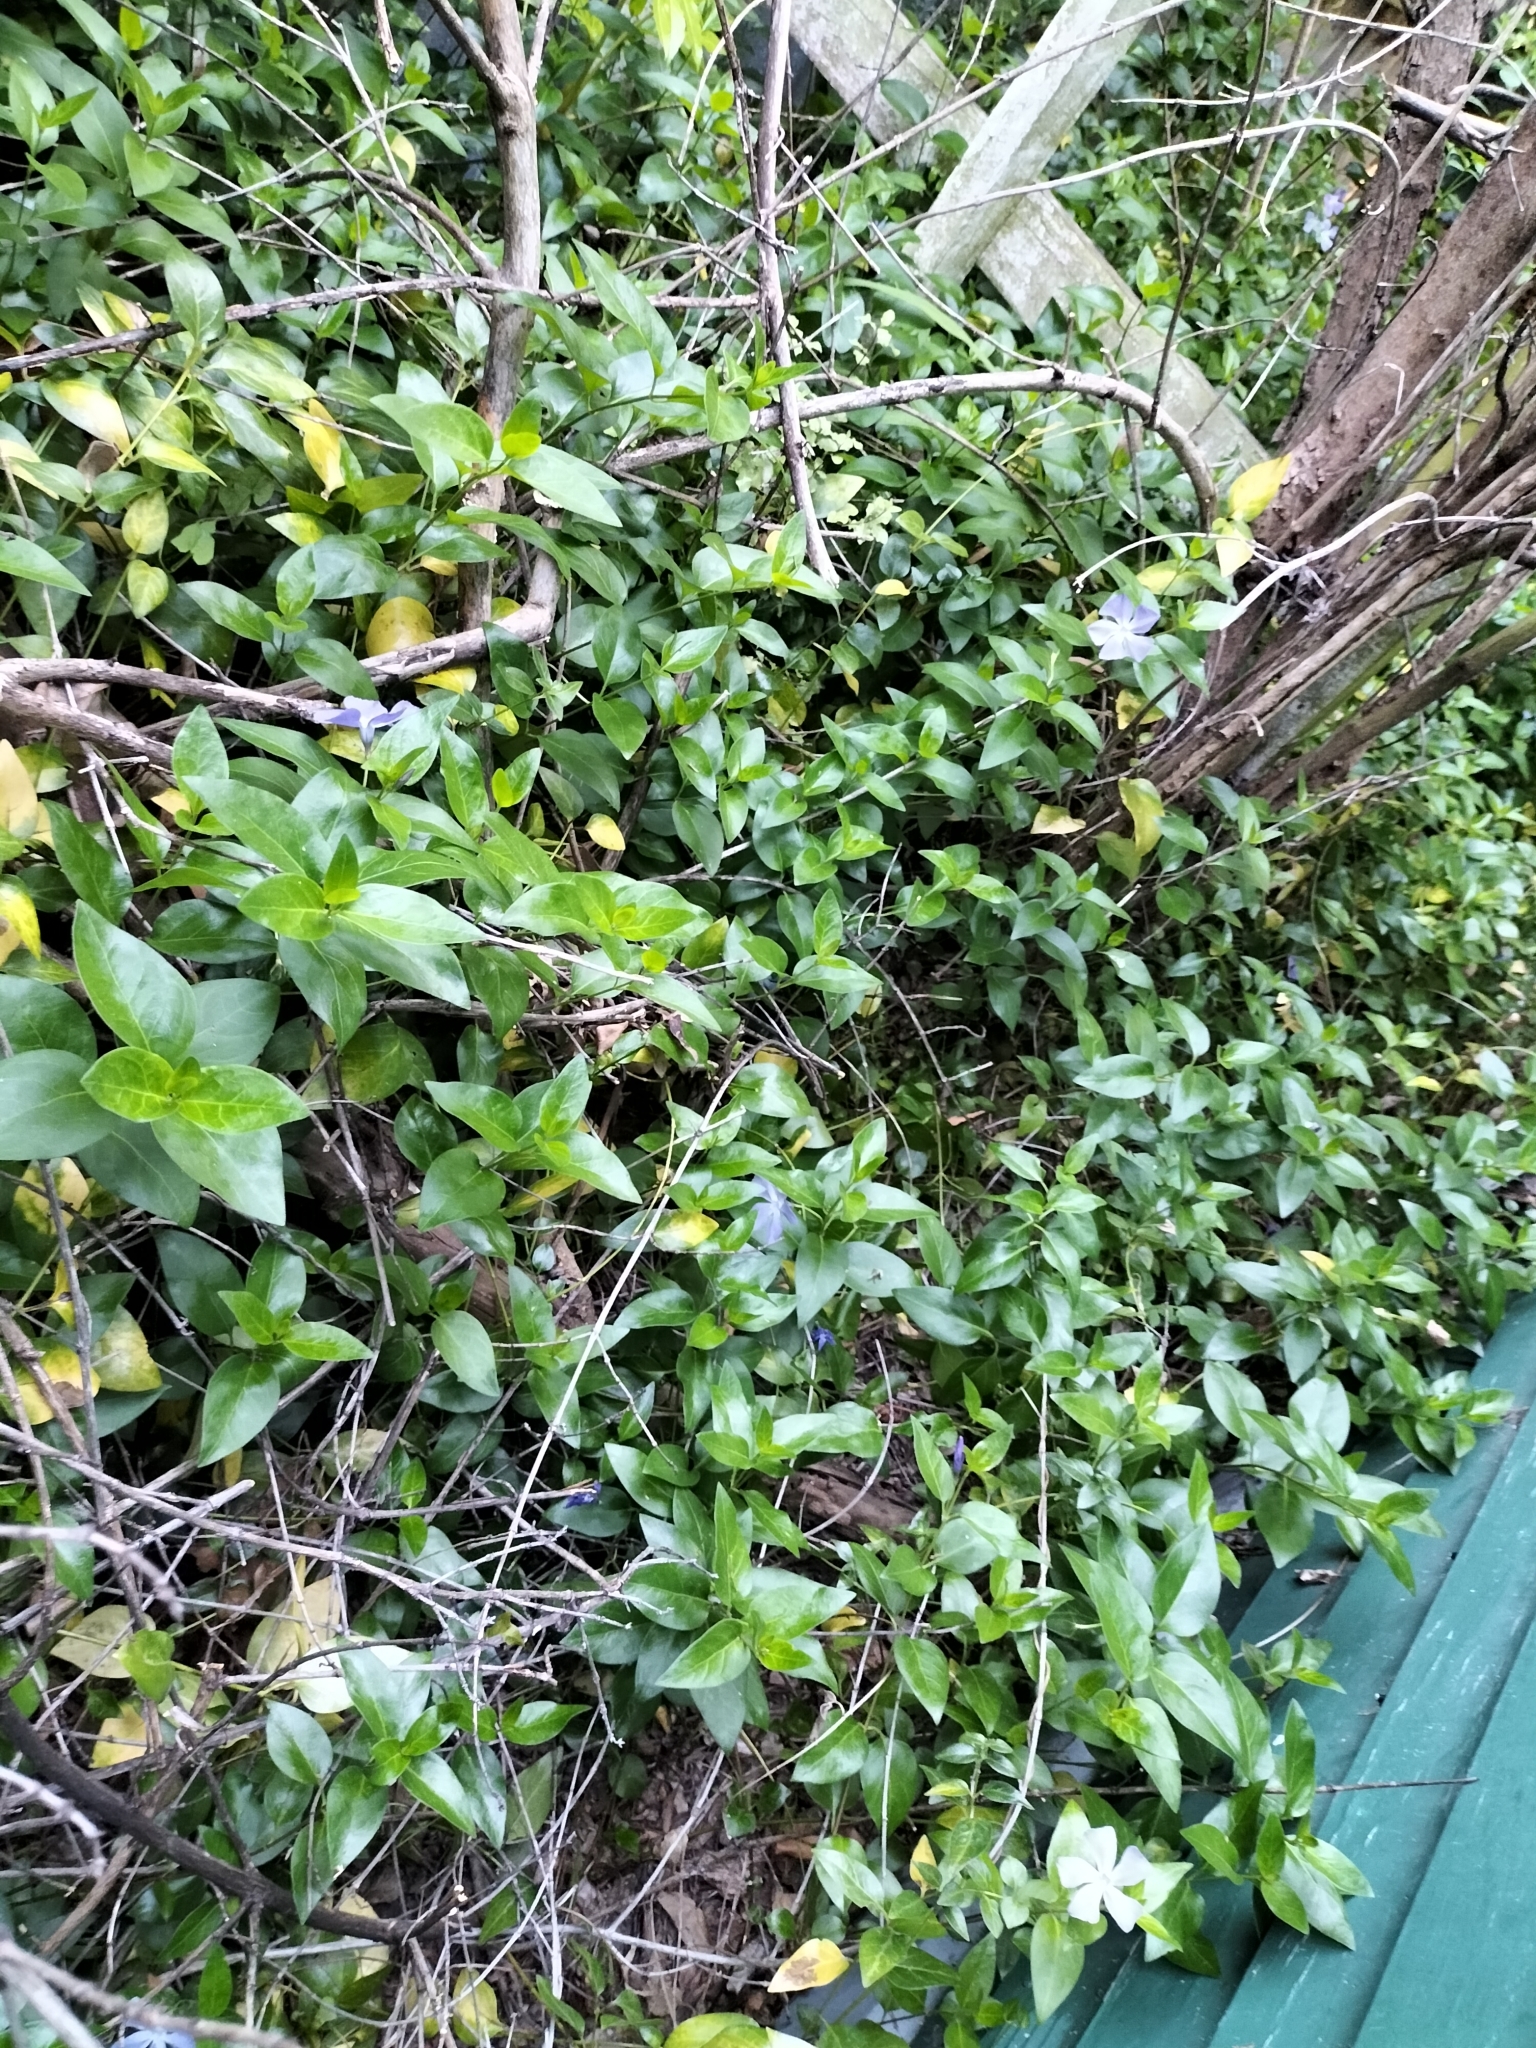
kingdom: Plantae
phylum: Tracheophyta
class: Magnoliopsida
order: Gentianales
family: Apocynaceae
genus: Vinca
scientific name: Vinca major
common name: Greater periwinkle
